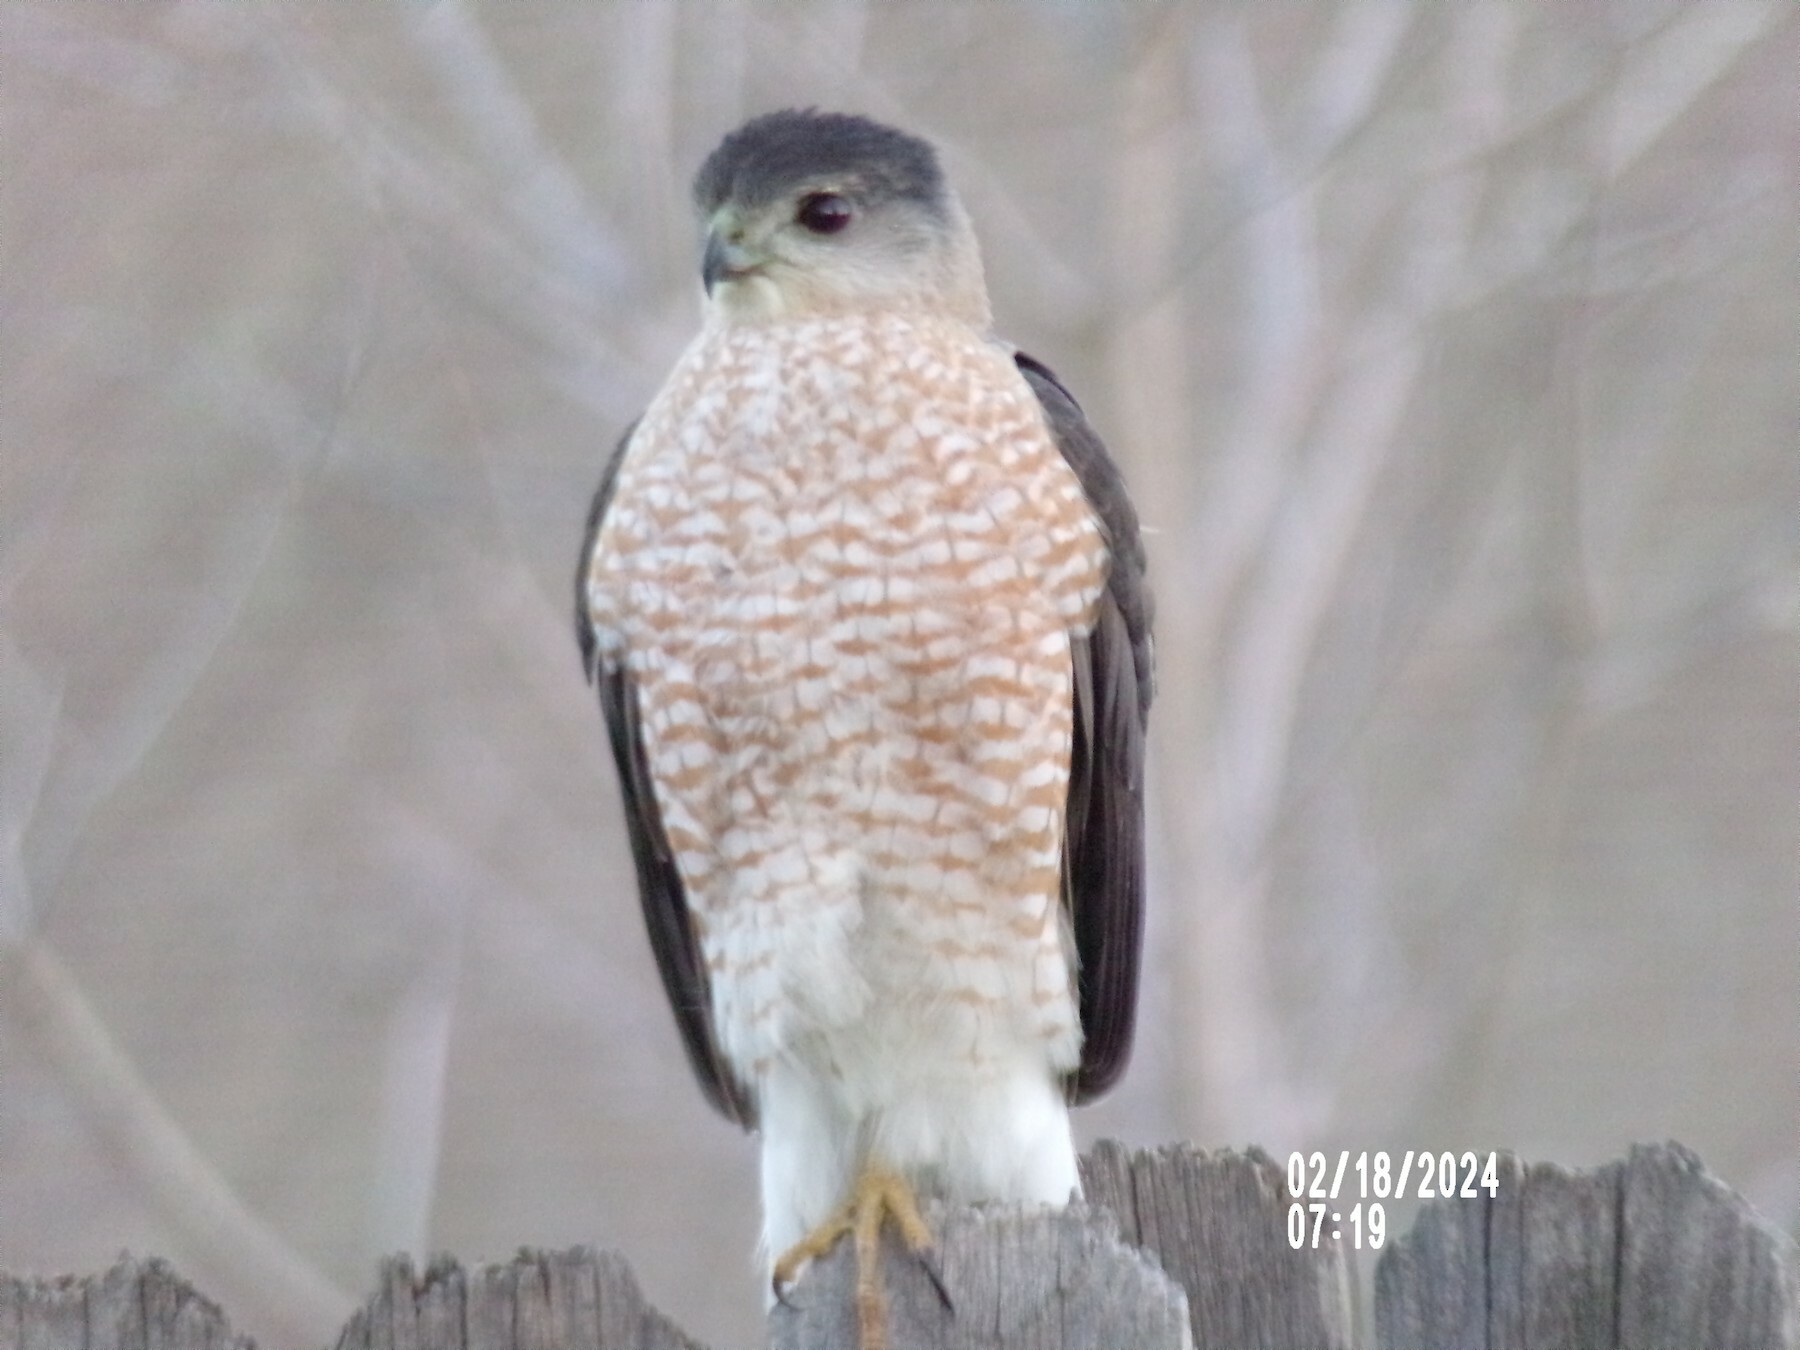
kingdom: Animalia
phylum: Chordata
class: Aves
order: Accipitriformes
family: Accipitridae
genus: Accipiter
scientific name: Accipiter cooperii
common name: Cooper's hawk
